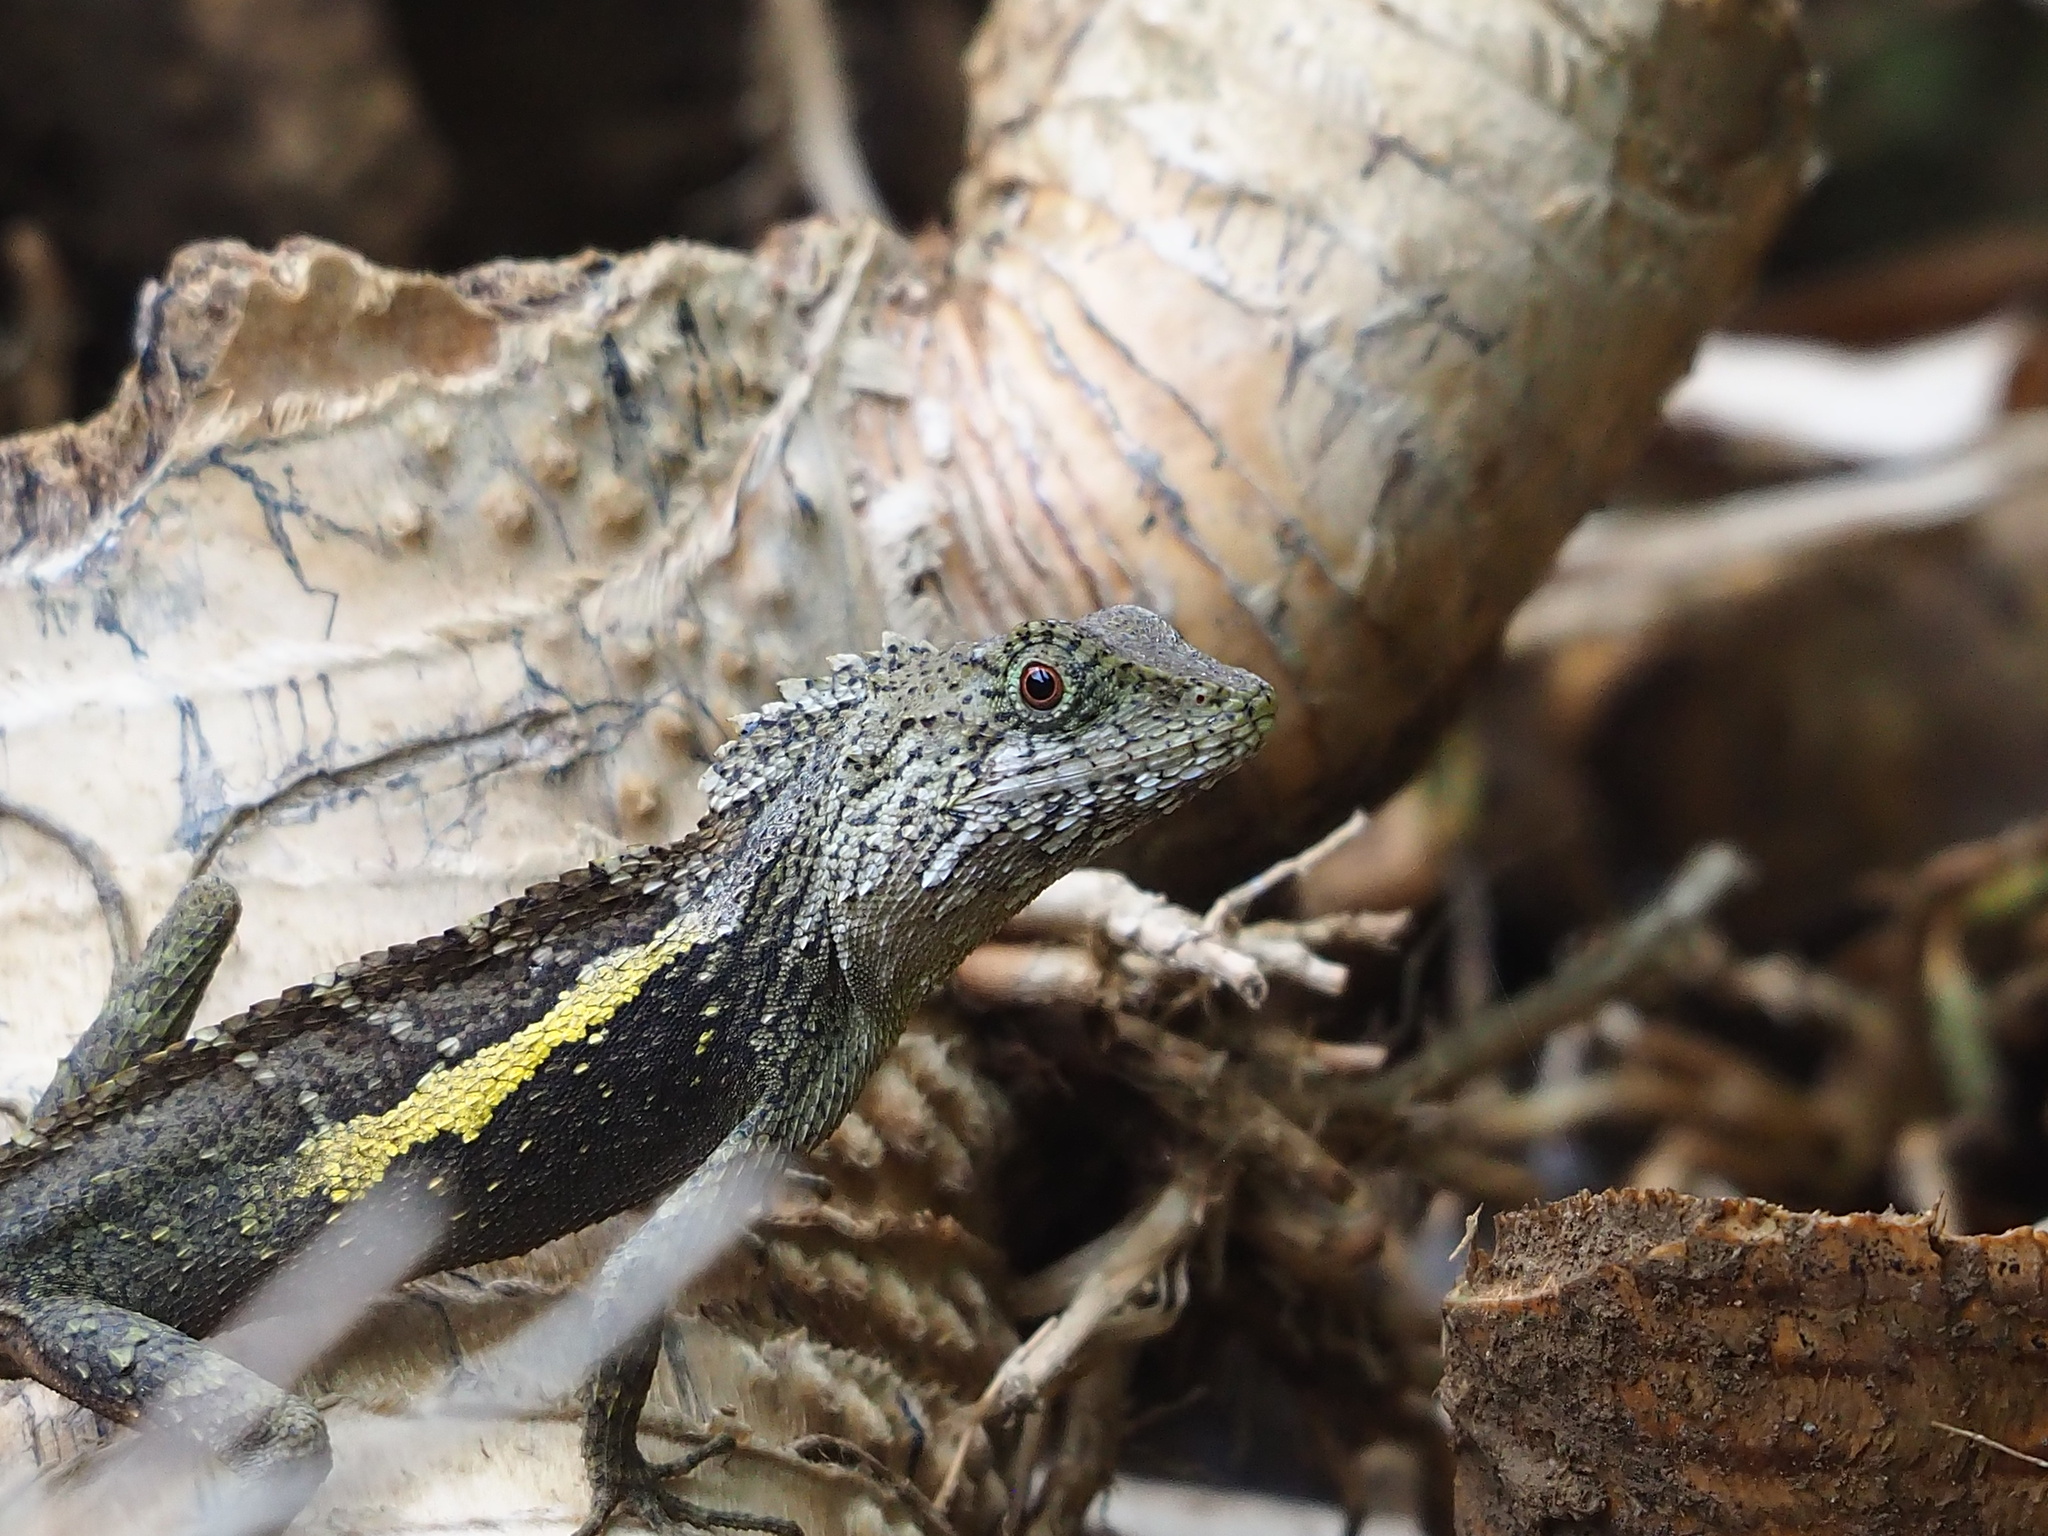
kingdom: Animalia
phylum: Chordata
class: Squamata
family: Agamidae
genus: Diploderma
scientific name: Diploderma swinhonis
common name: Taiwan japalure
